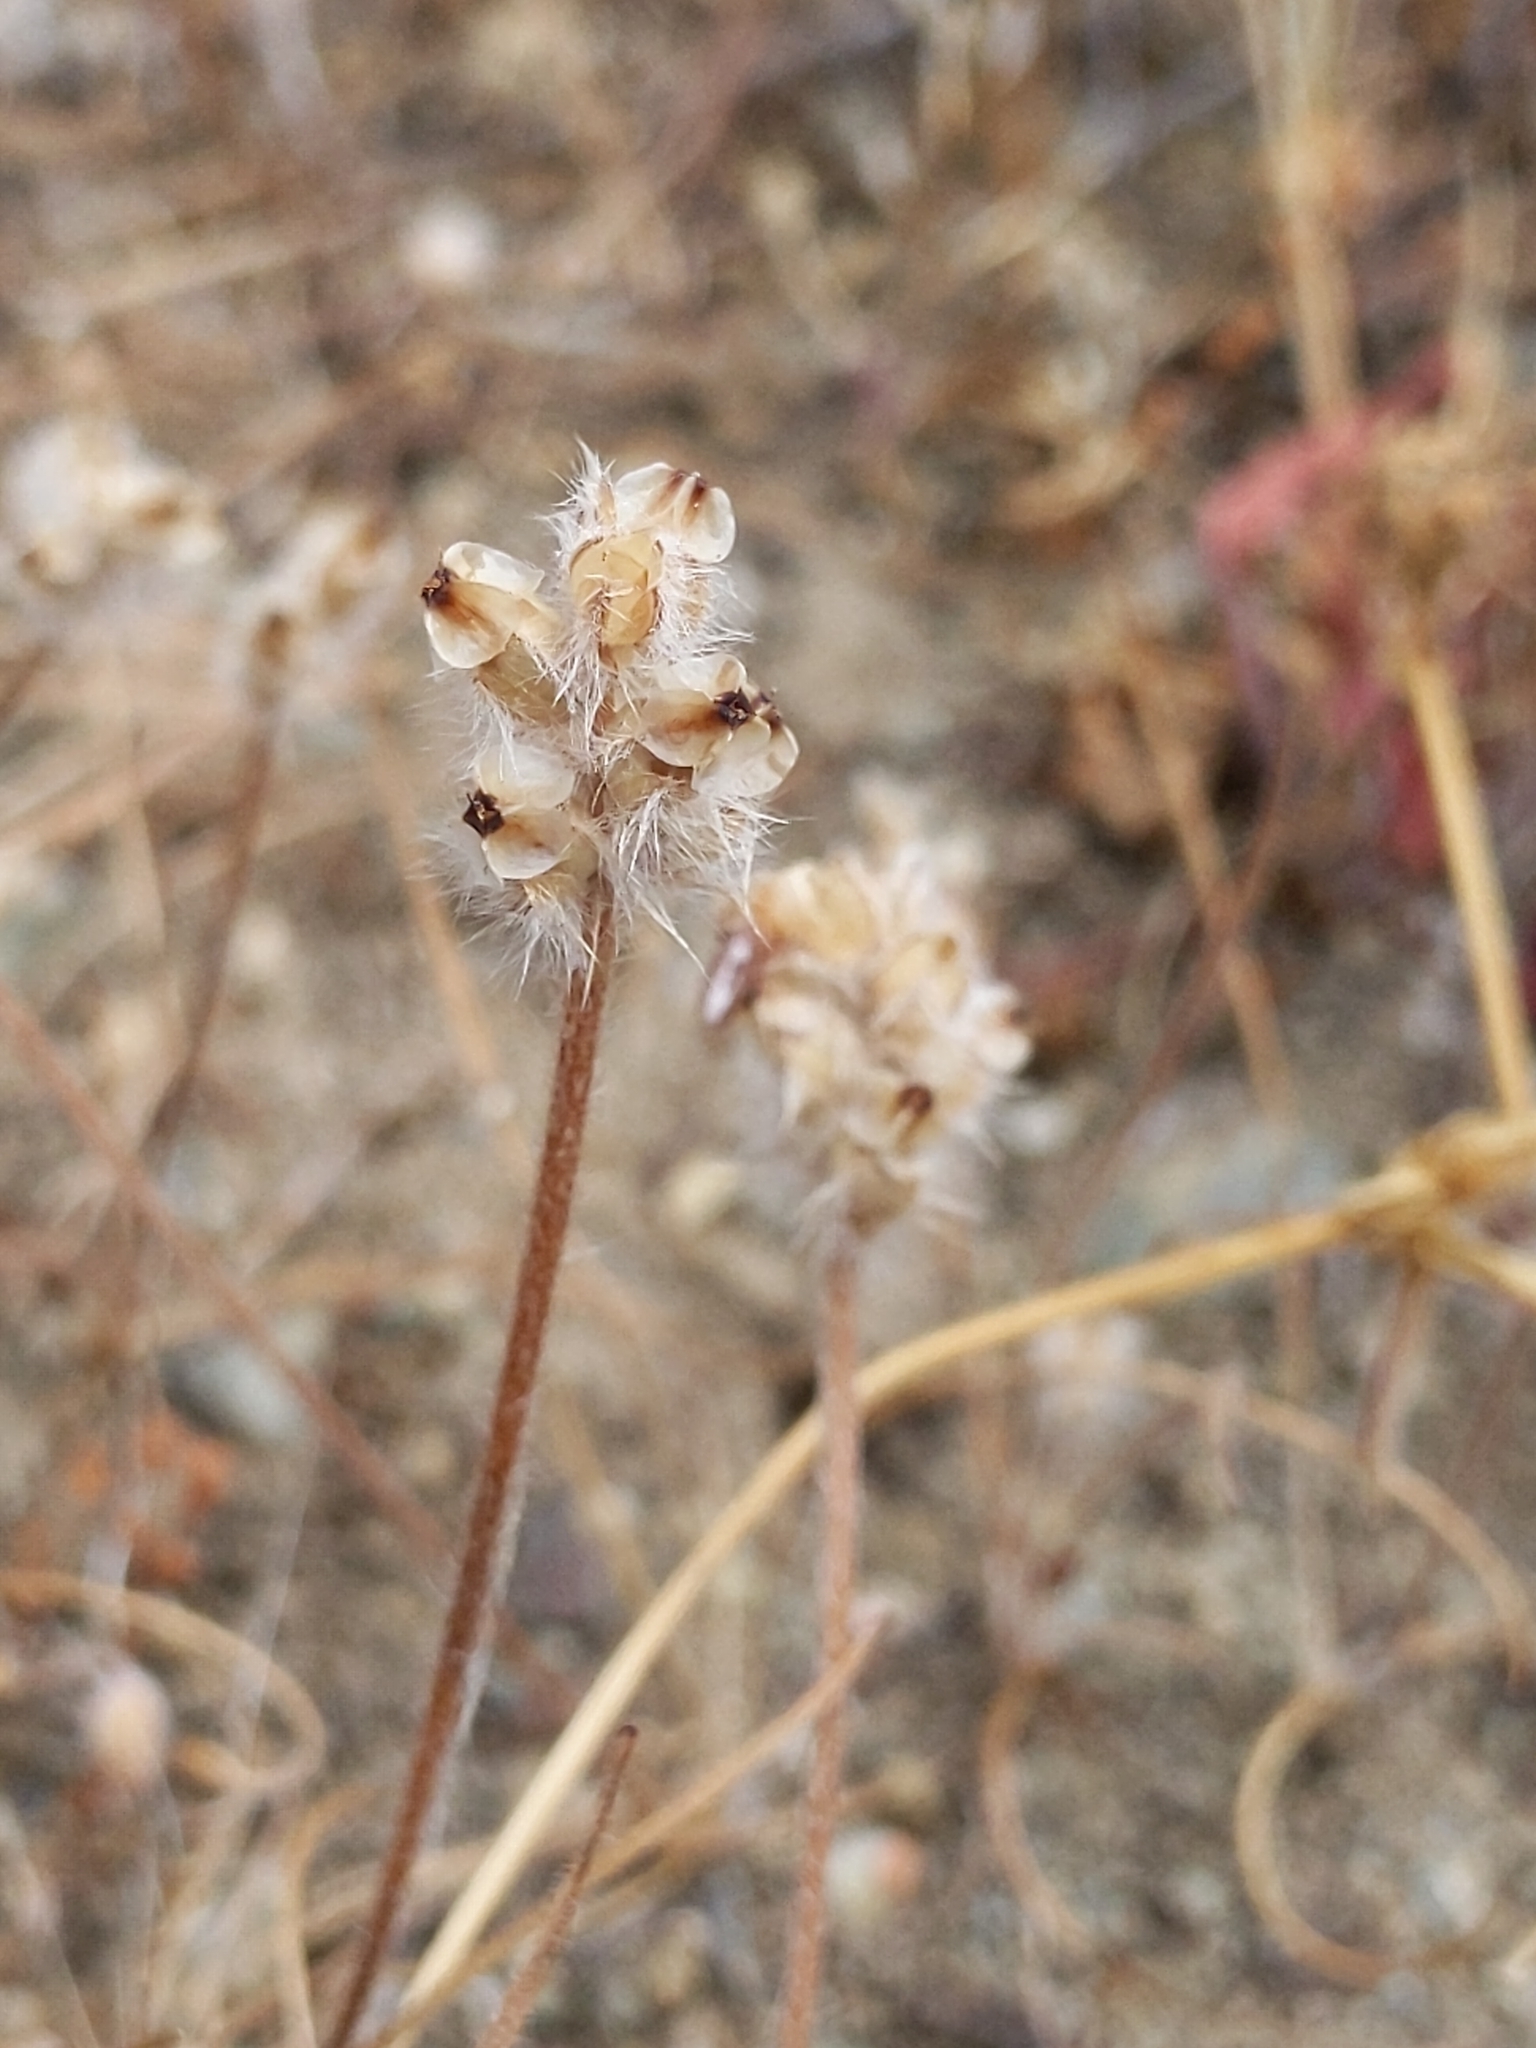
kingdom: Plantae
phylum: Tracheophyta
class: Magnoliopsida
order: Lamiales
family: Plantaginaceae
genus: Plantago
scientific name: Plantago erecta
